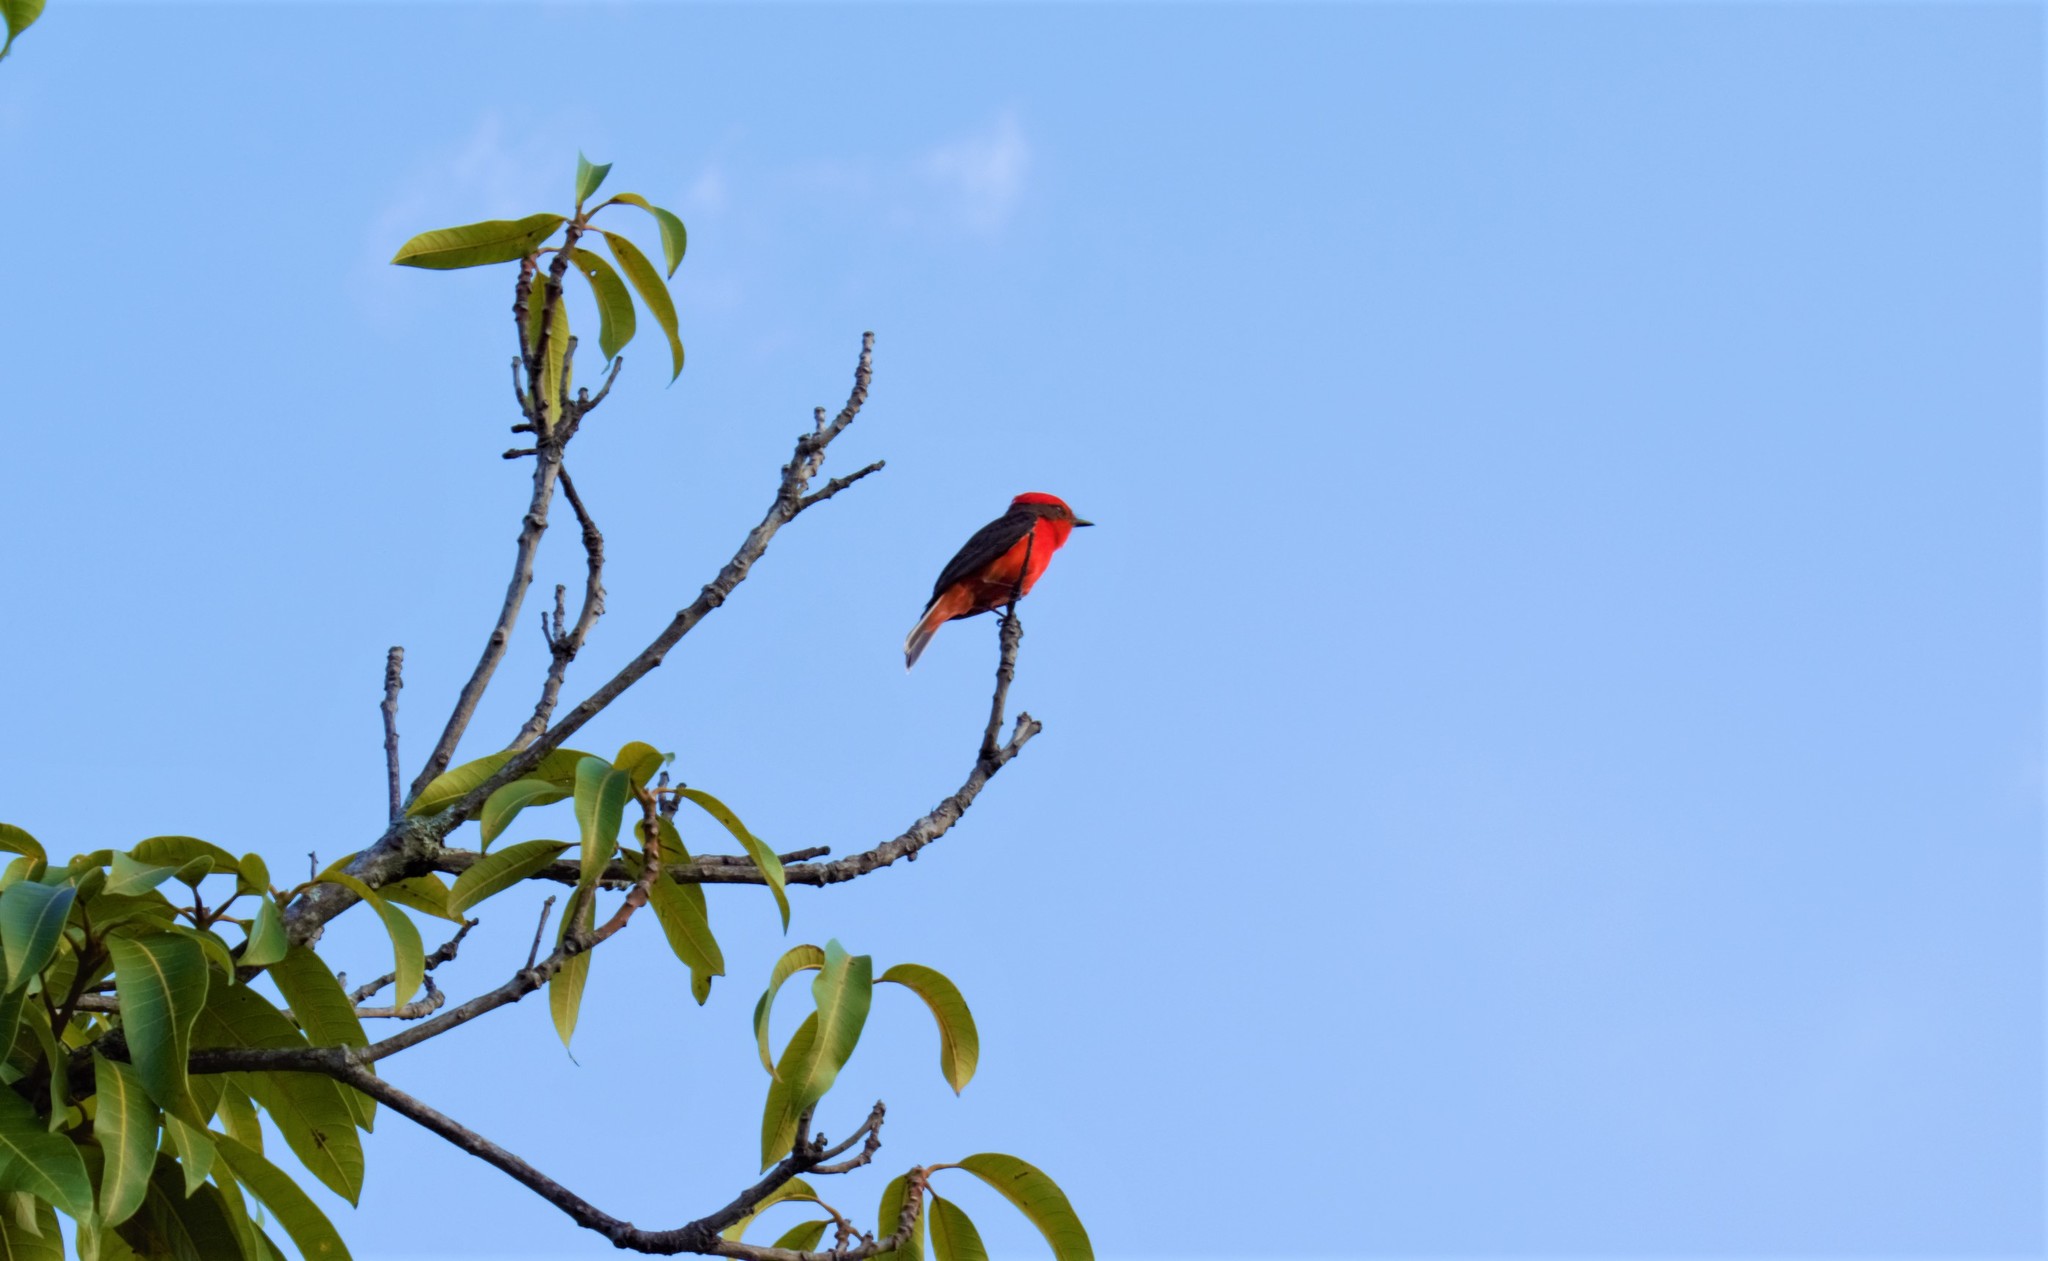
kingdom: Animalia
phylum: Chordata
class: Aves
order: Passeriformes
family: Tyrannidae
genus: Pyrocephalus
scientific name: Pyrocephalus rubinus
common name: Vermilion flycatcher
